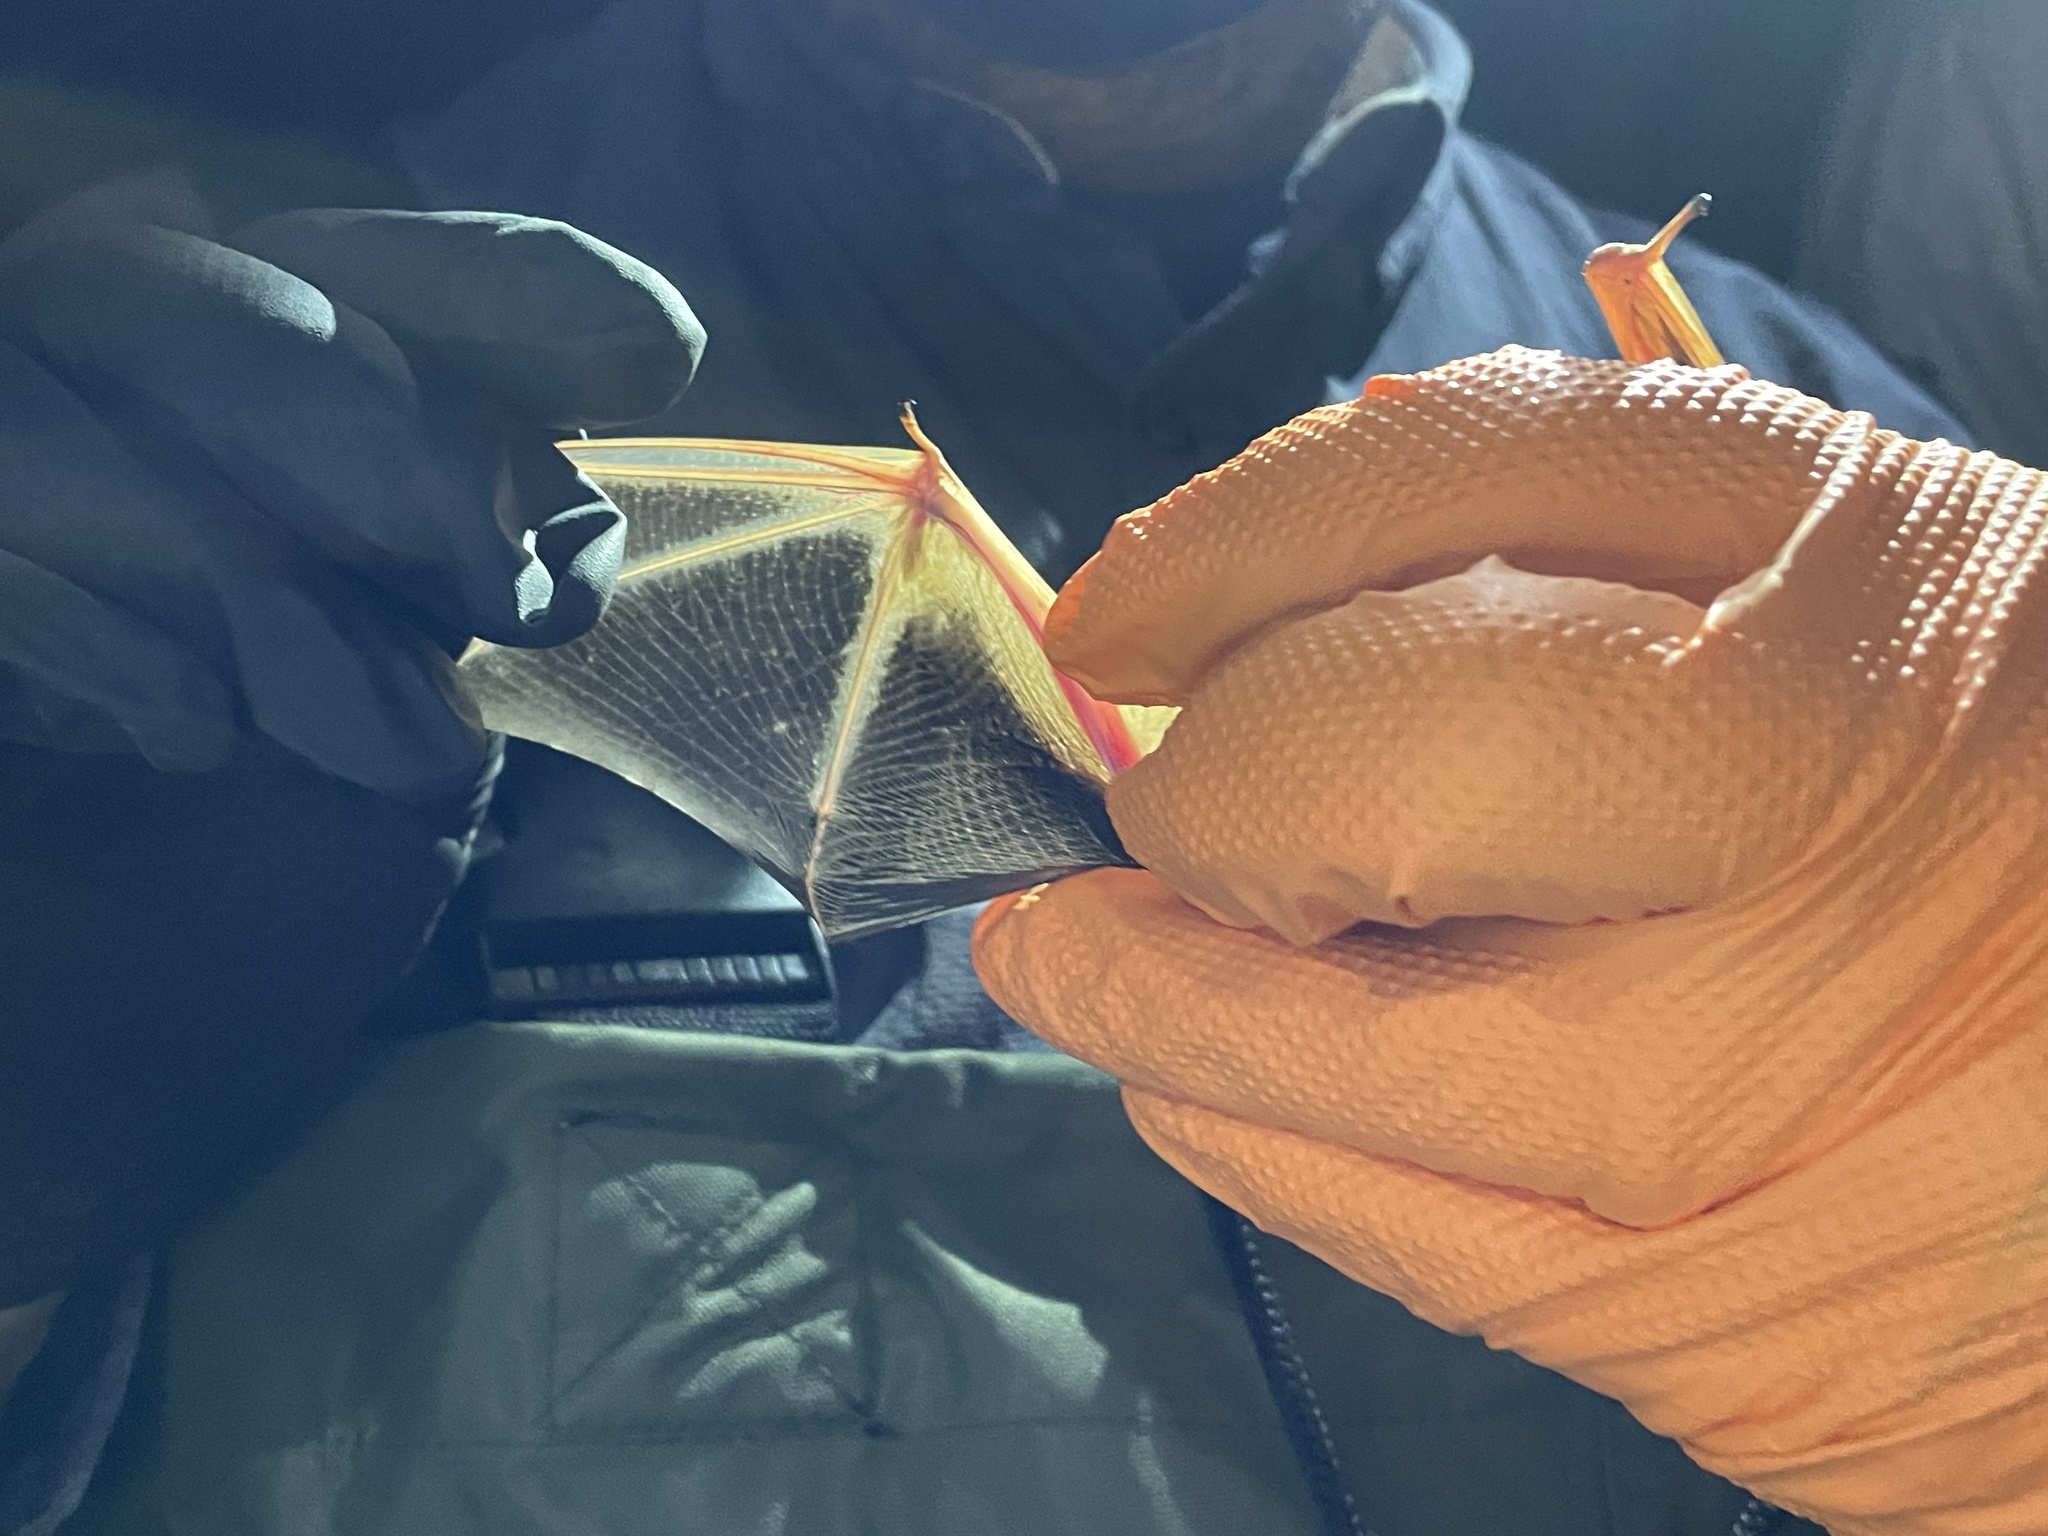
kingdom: Animalia
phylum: Chordata
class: Mammalia
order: Chiroptera
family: Vespertilionidae
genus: Lasiurus
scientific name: Lasiurus frantzii
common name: Desert red bat
